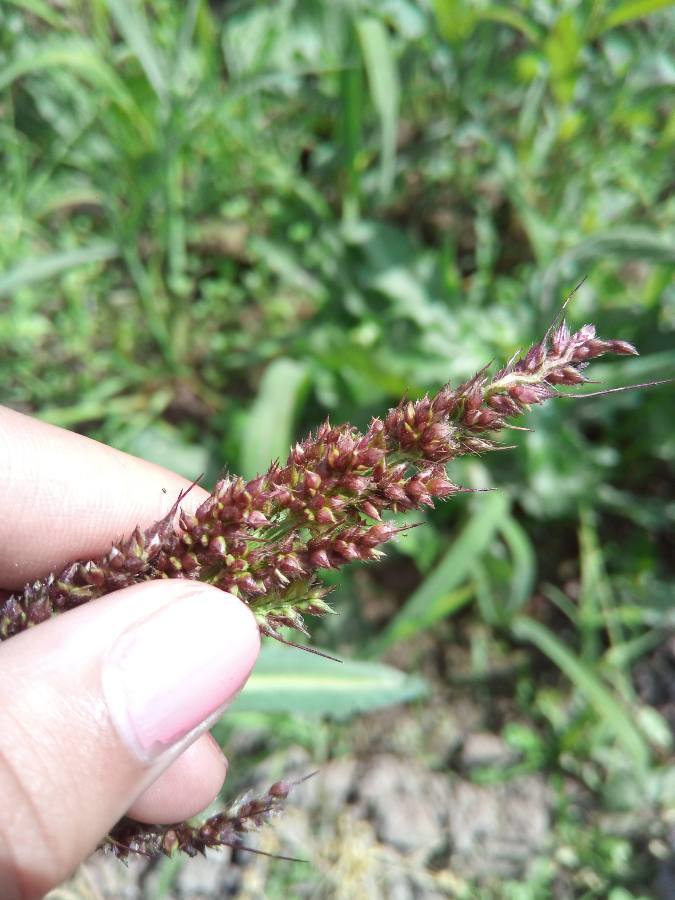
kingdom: Plantae
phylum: Tracheophyta
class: Liliopsida
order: Poales
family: Poaceae
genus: Echinochloa
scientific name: Echinochloa crus-galli
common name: Cockspur
